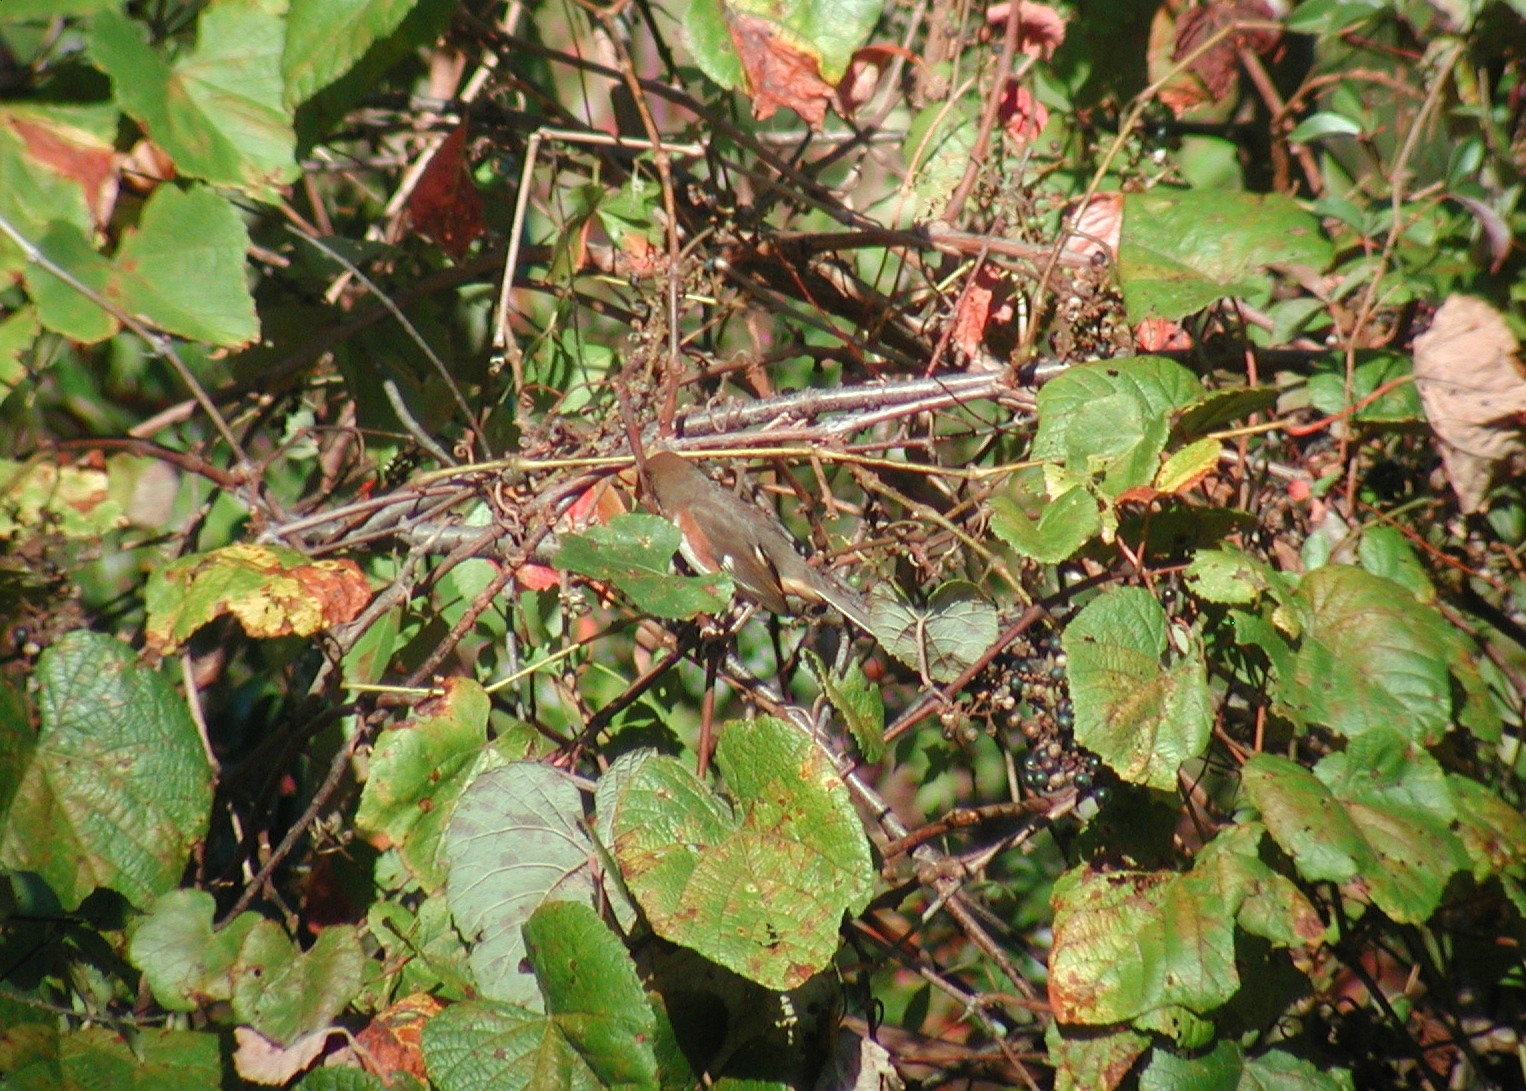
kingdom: Animalia
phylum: Chordata
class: Aves
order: Passeriformes
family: Passerellidae
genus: Pipilo
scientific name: Pipilo erythrophthalmus
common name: Eastern towhee
